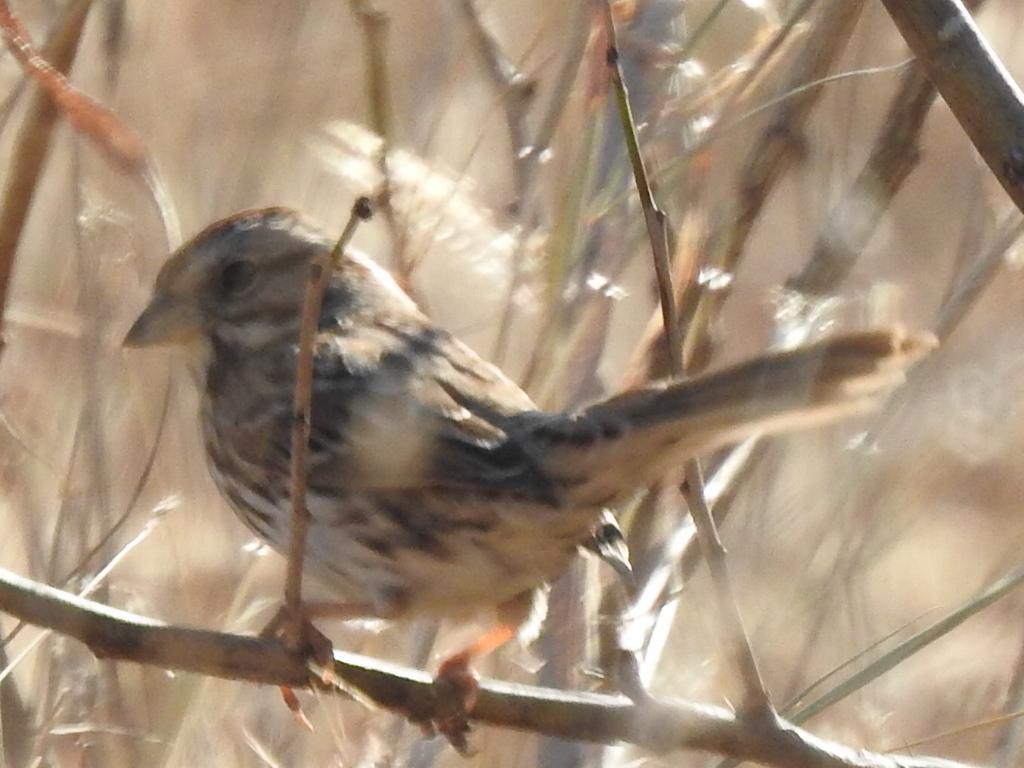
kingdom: Animalia
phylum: Chordata
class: Aves
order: Passeriformes
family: Passerellidae
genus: Melospiza
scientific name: Melospiza melodia
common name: Song sparrow
